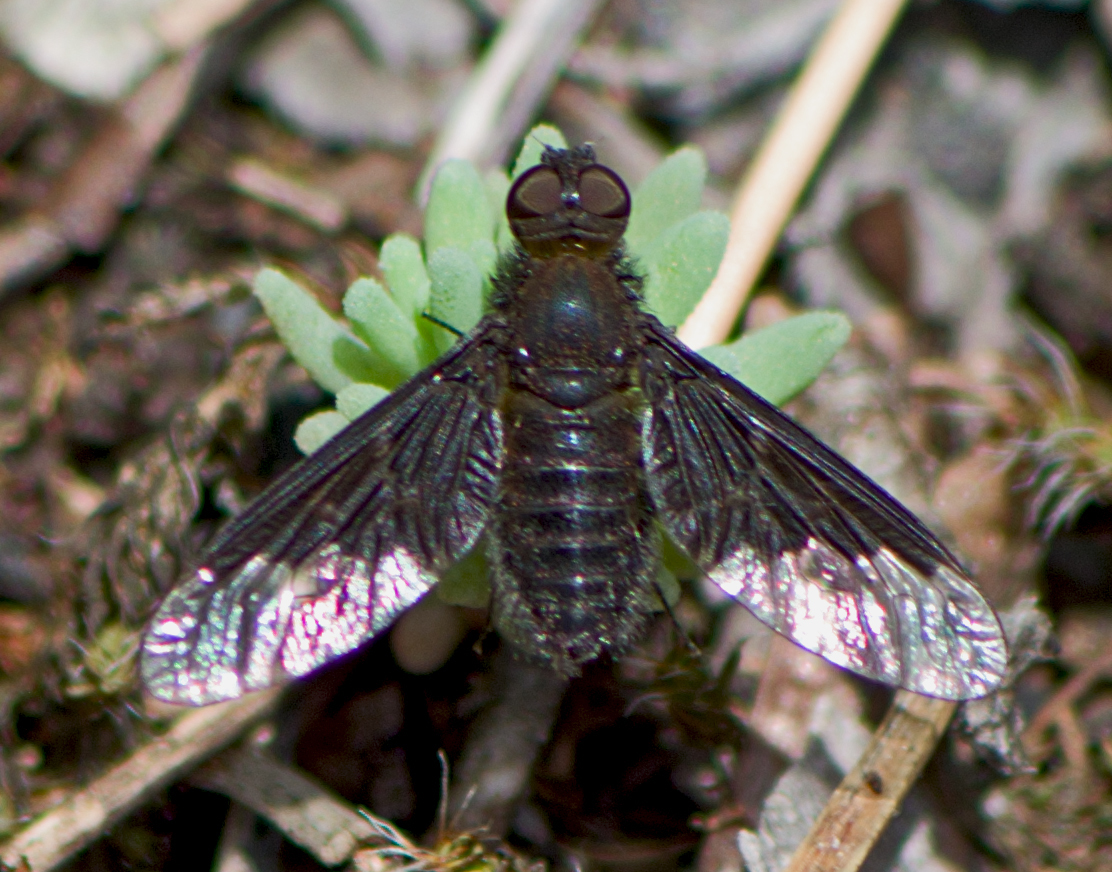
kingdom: Animalia
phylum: Arthropoda
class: Insecta
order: Diptera
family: Bombyliidae
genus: Hemipenthes
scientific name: Hemipenthes morio
